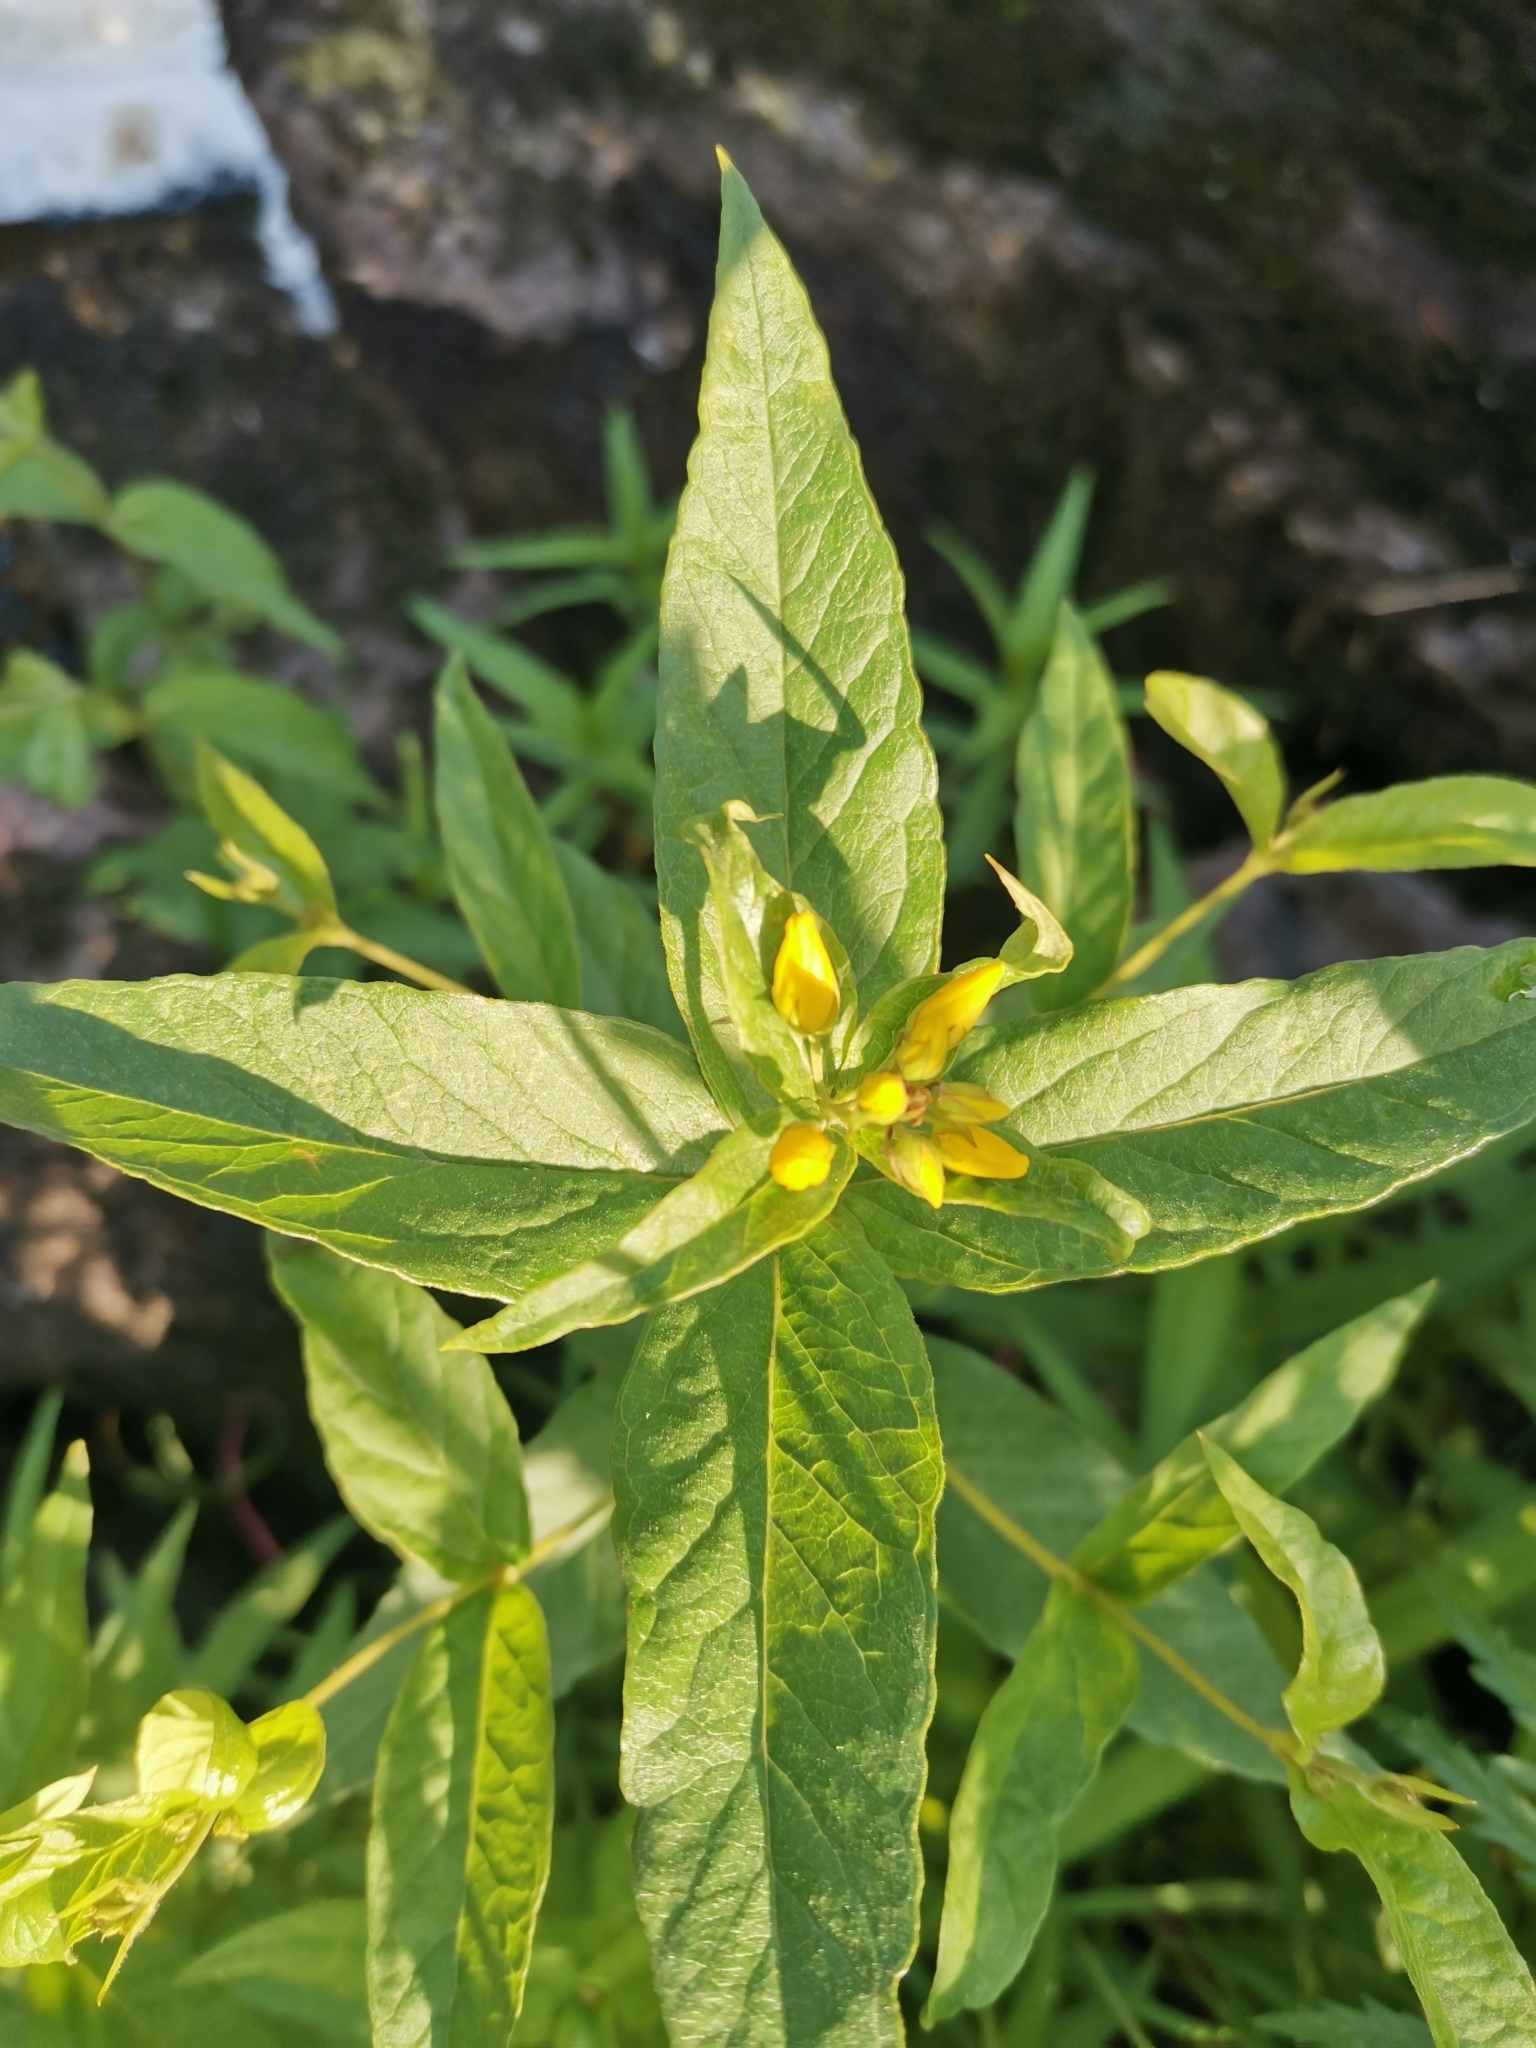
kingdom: Plantae
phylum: Tracheophyta
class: Magnoliopsida
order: Ericales
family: Primulaceae
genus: Lysimachia
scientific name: Lysimachia vulgaris
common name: Yellow loosestrife
